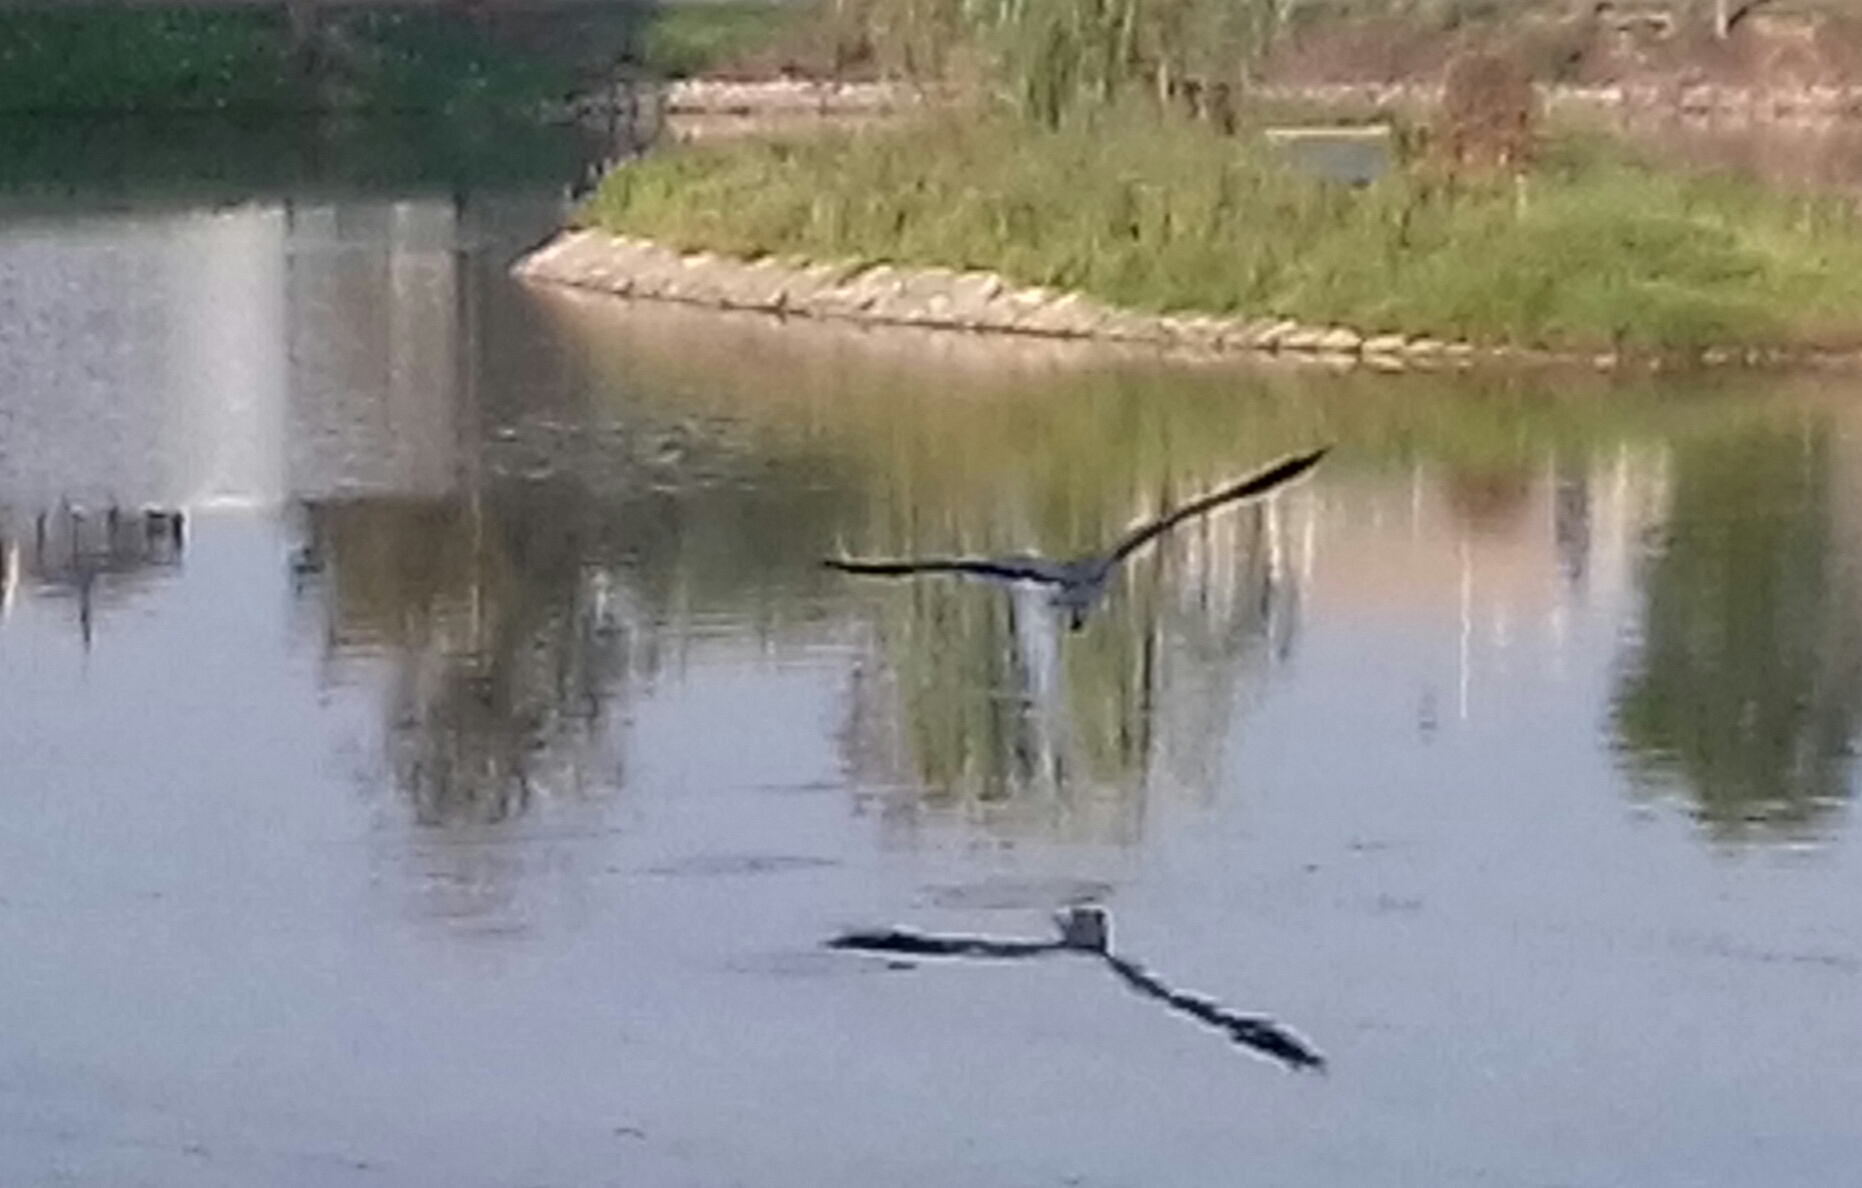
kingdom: Animalia
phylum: Chordata
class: Aves
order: Pelecaniformes
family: Ardeidae
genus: Ardea
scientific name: Ardea cinerea
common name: Grey heron
